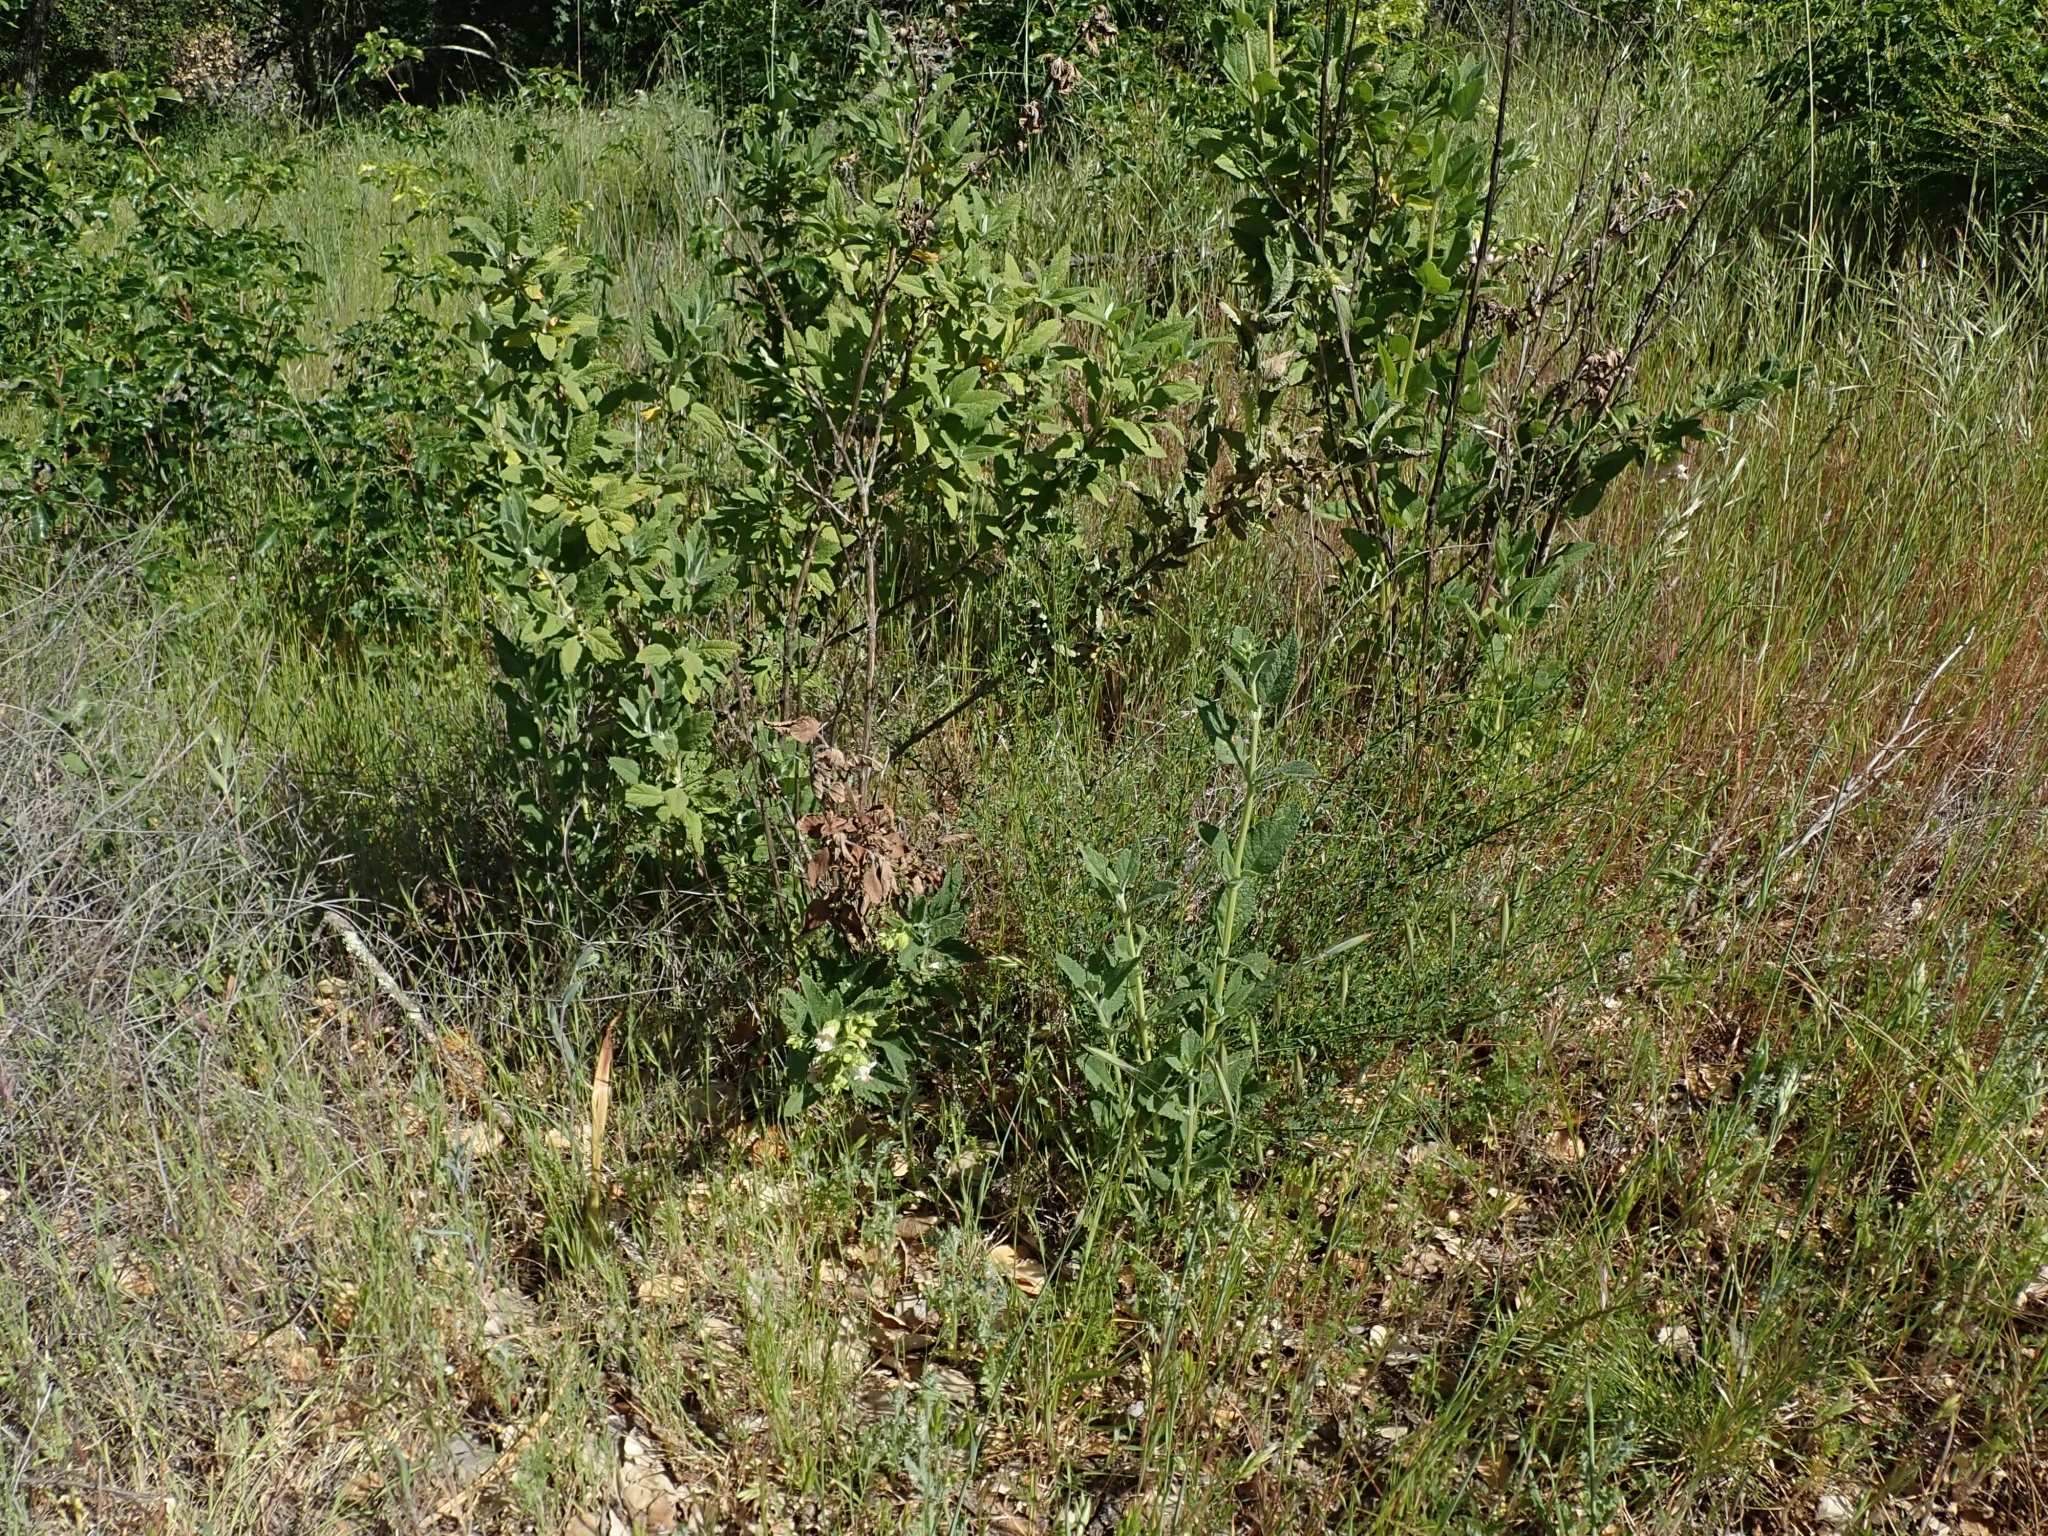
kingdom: Plantae
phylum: Tracheophyta
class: Magnoliopsida
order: Lamiales
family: Lamiaceae
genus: Lepechinia
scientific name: Lepechinia calycina
